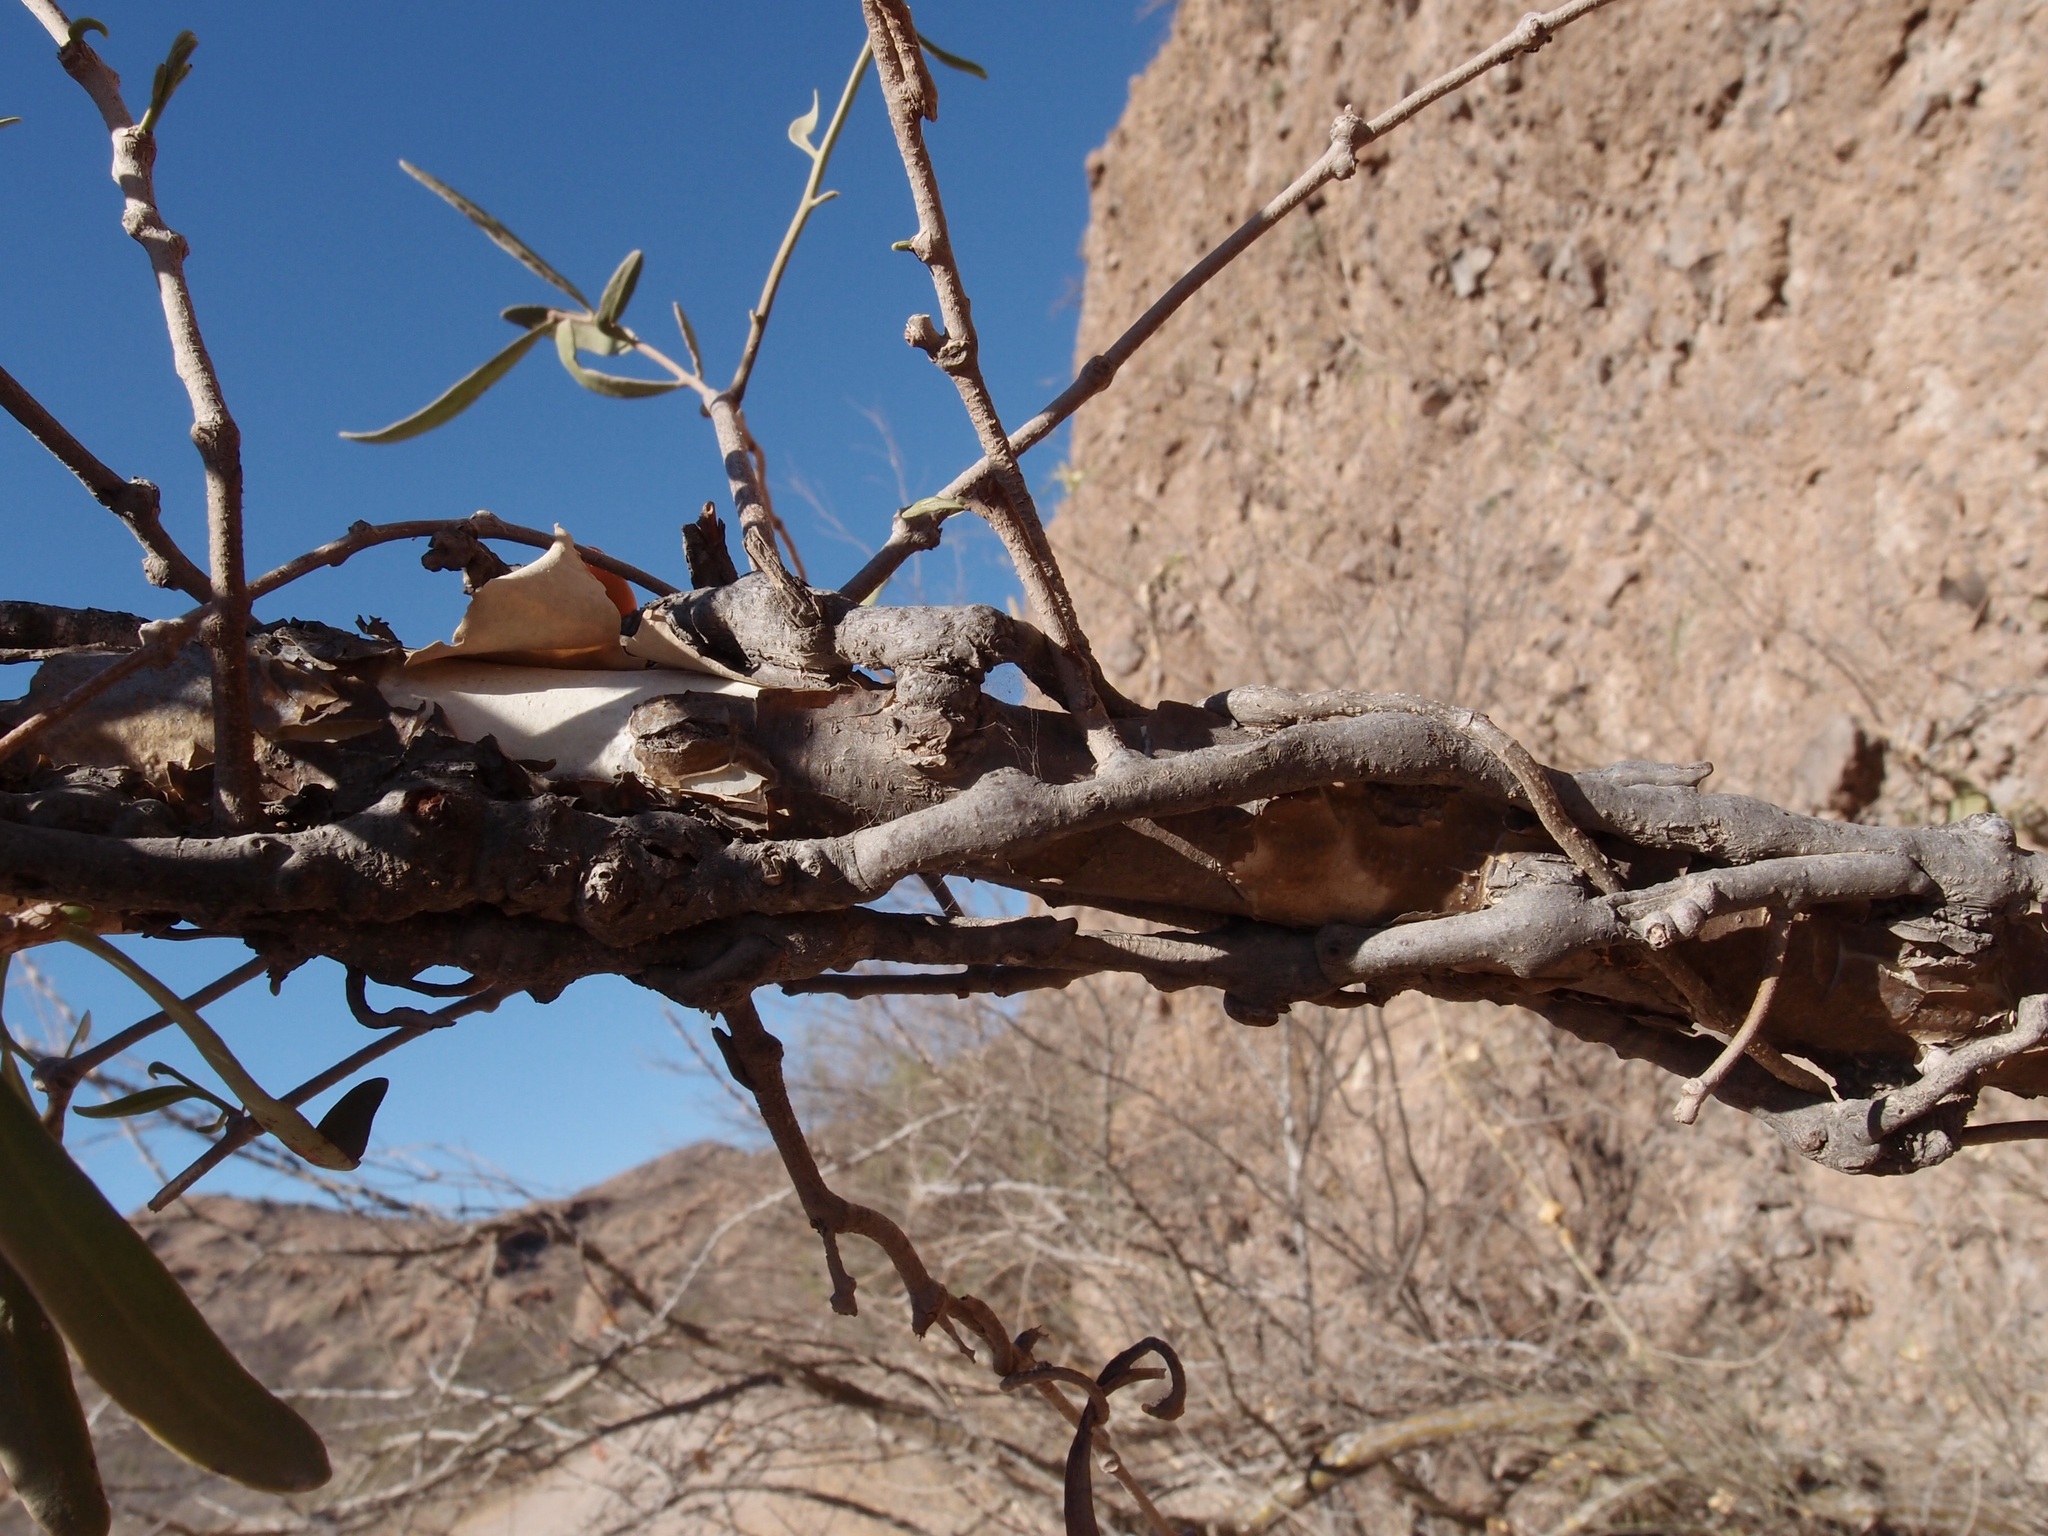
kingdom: Plantae
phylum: Tracheophyta
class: Magnoliopsida
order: Santalales
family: Loranthaceae
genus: Struthanthus
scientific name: Struthanthus palmeri
